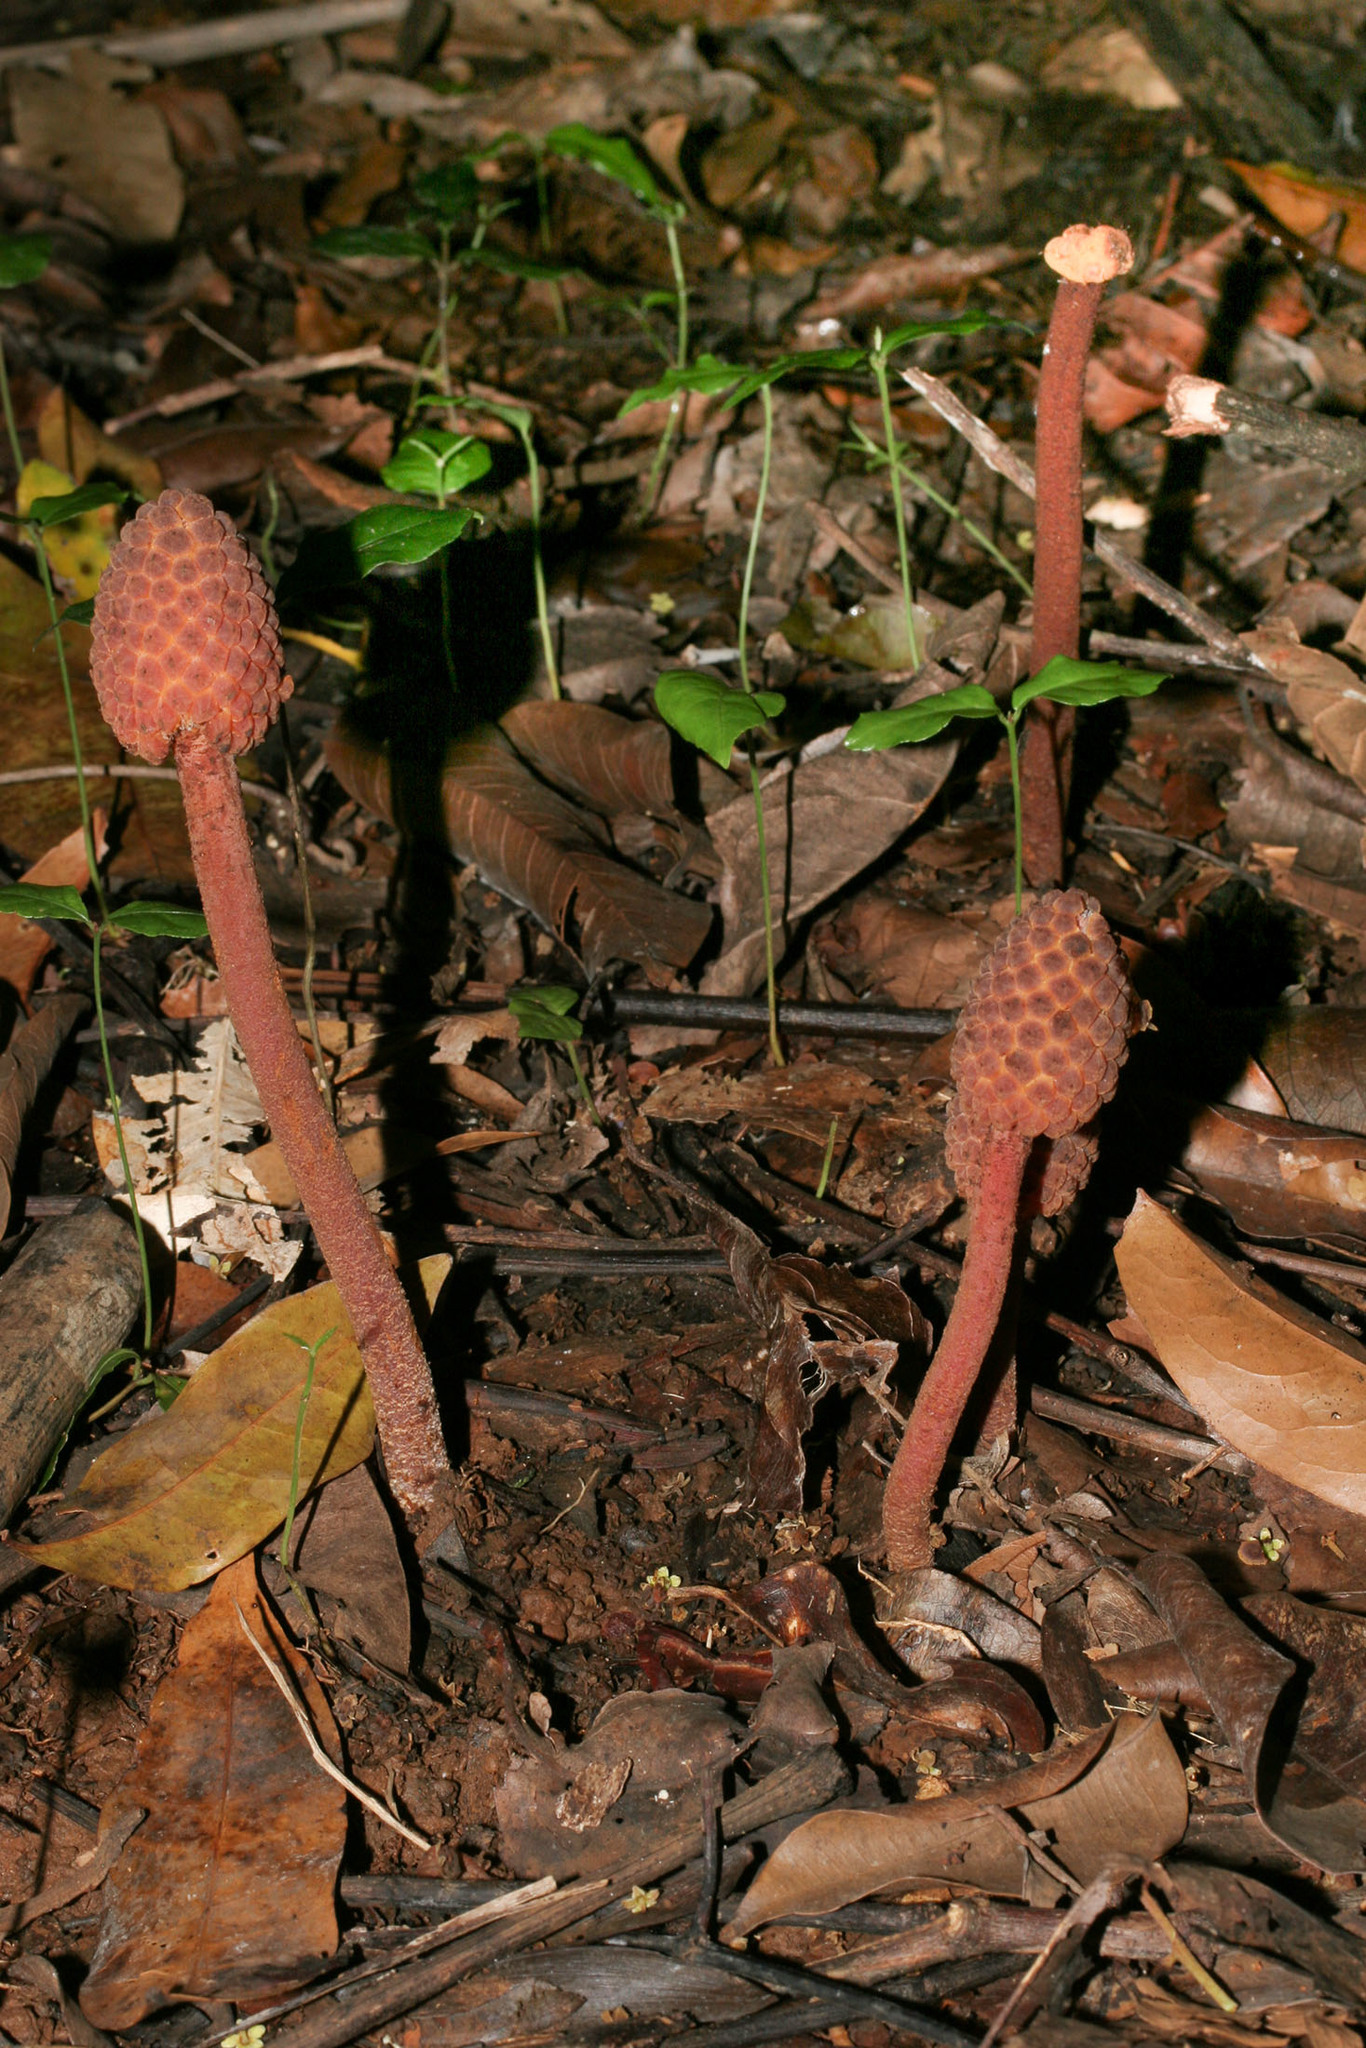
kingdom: Plantae
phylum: Tracheophyta
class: Magnoliopsida
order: Santalales
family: Balanophoraceae
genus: Helosis
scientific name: Helosis cayennensis
